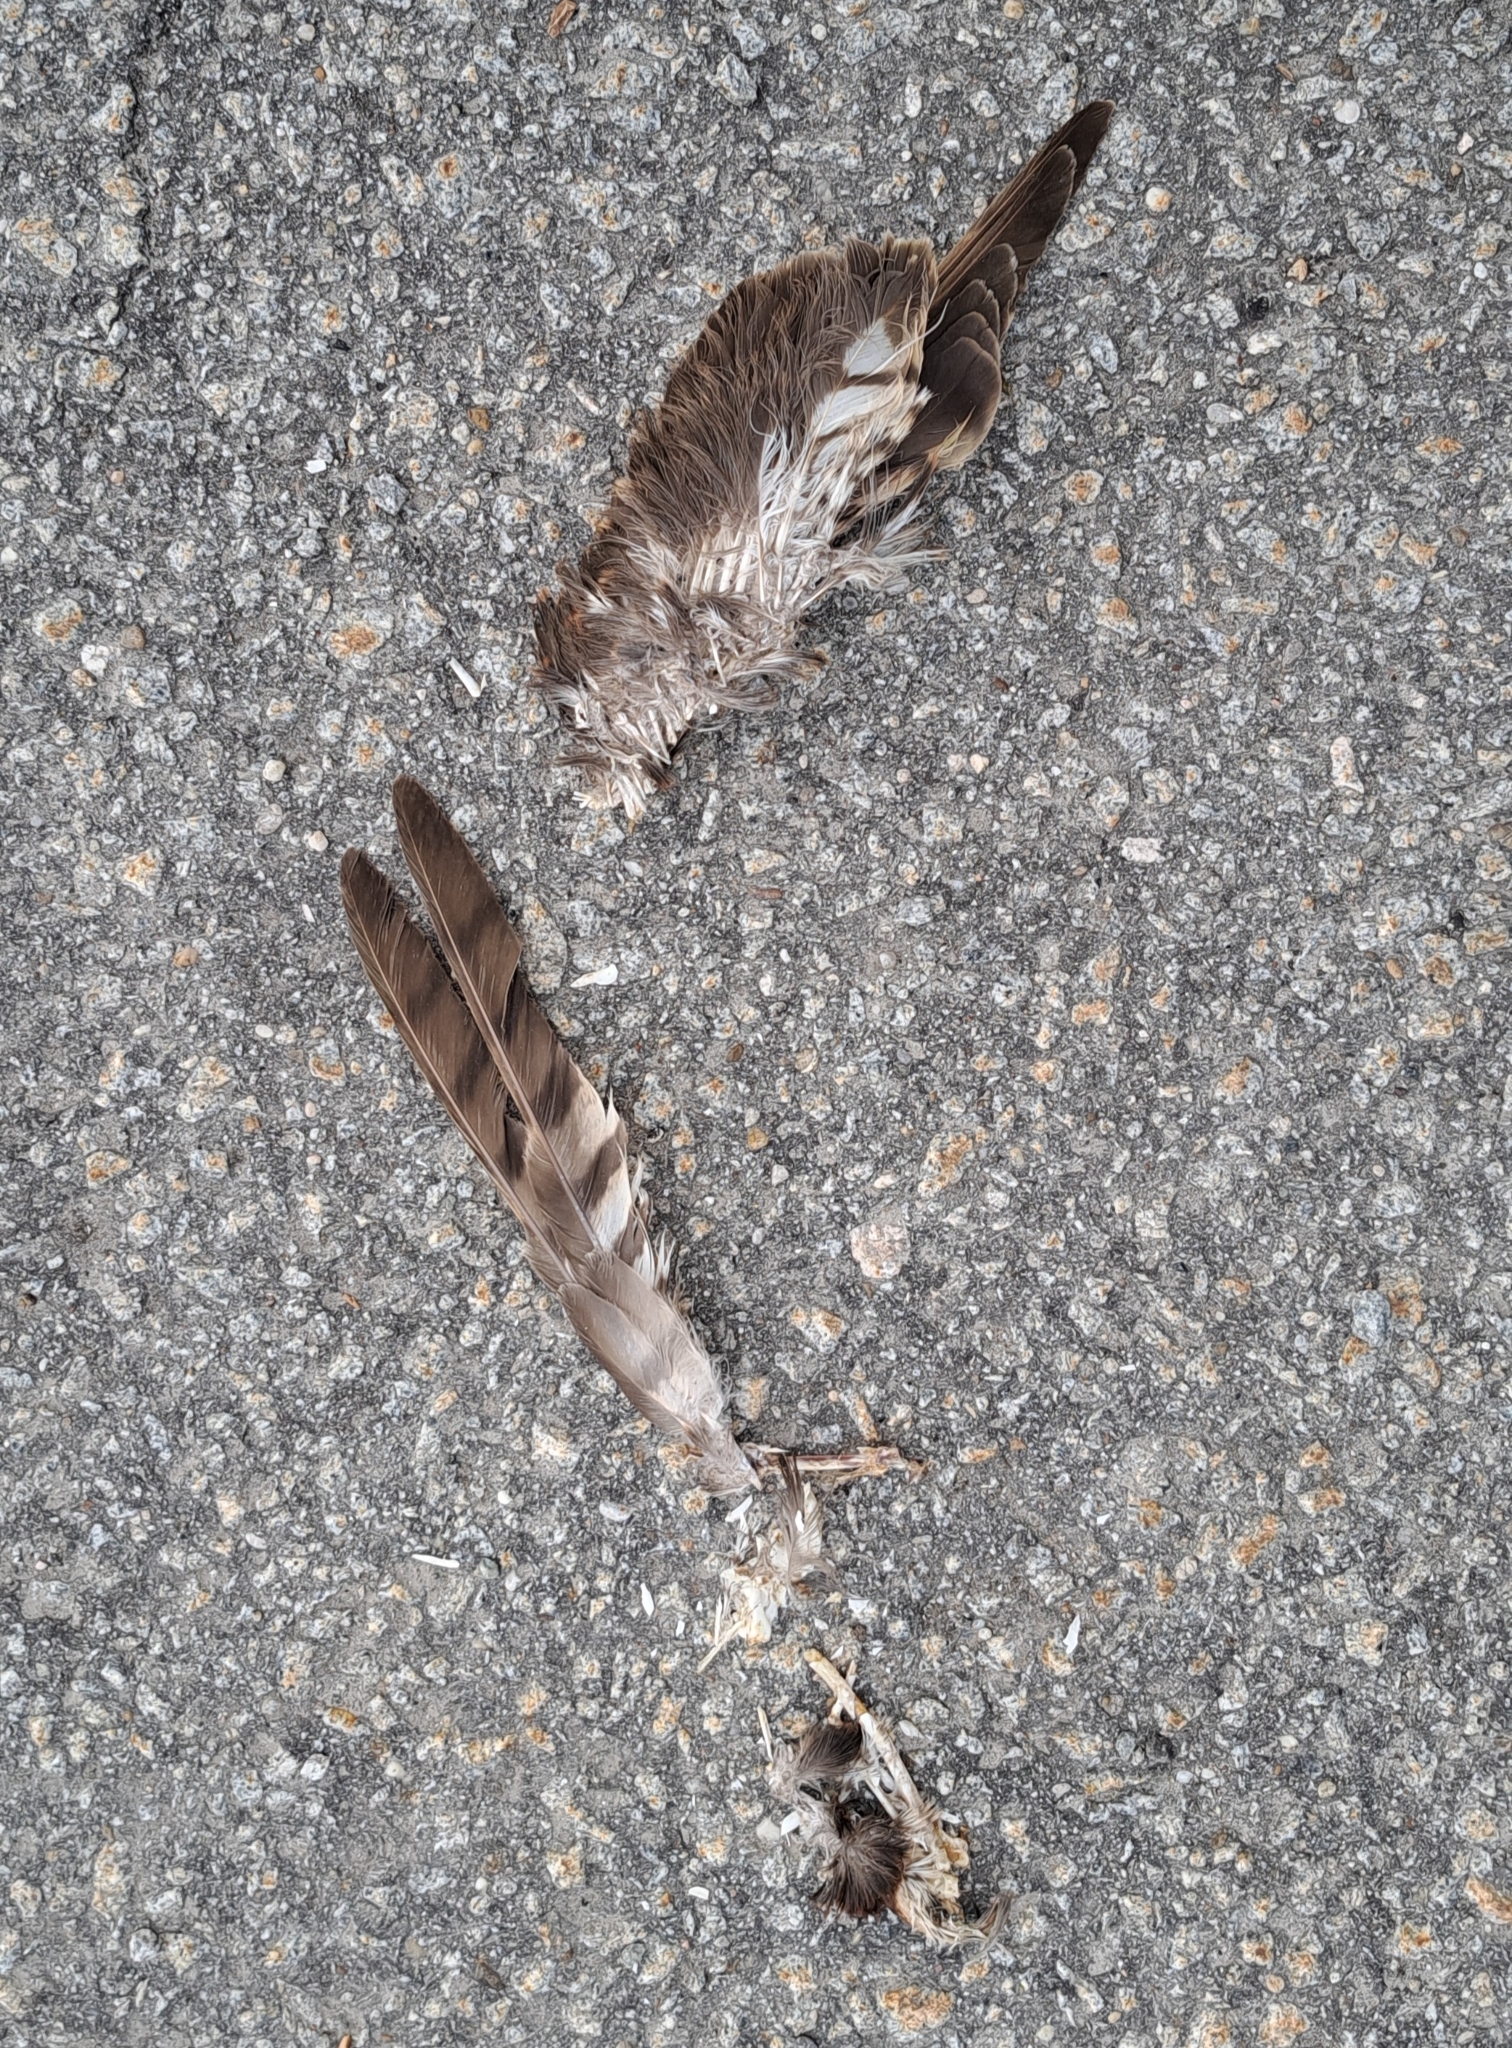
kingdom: Animalia
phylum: Chordata
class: Aves
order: Accipitriformes
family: Accipitridae
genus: Accipiter
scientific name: Accipiter nisus
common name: Eurasian sparrowhawk
